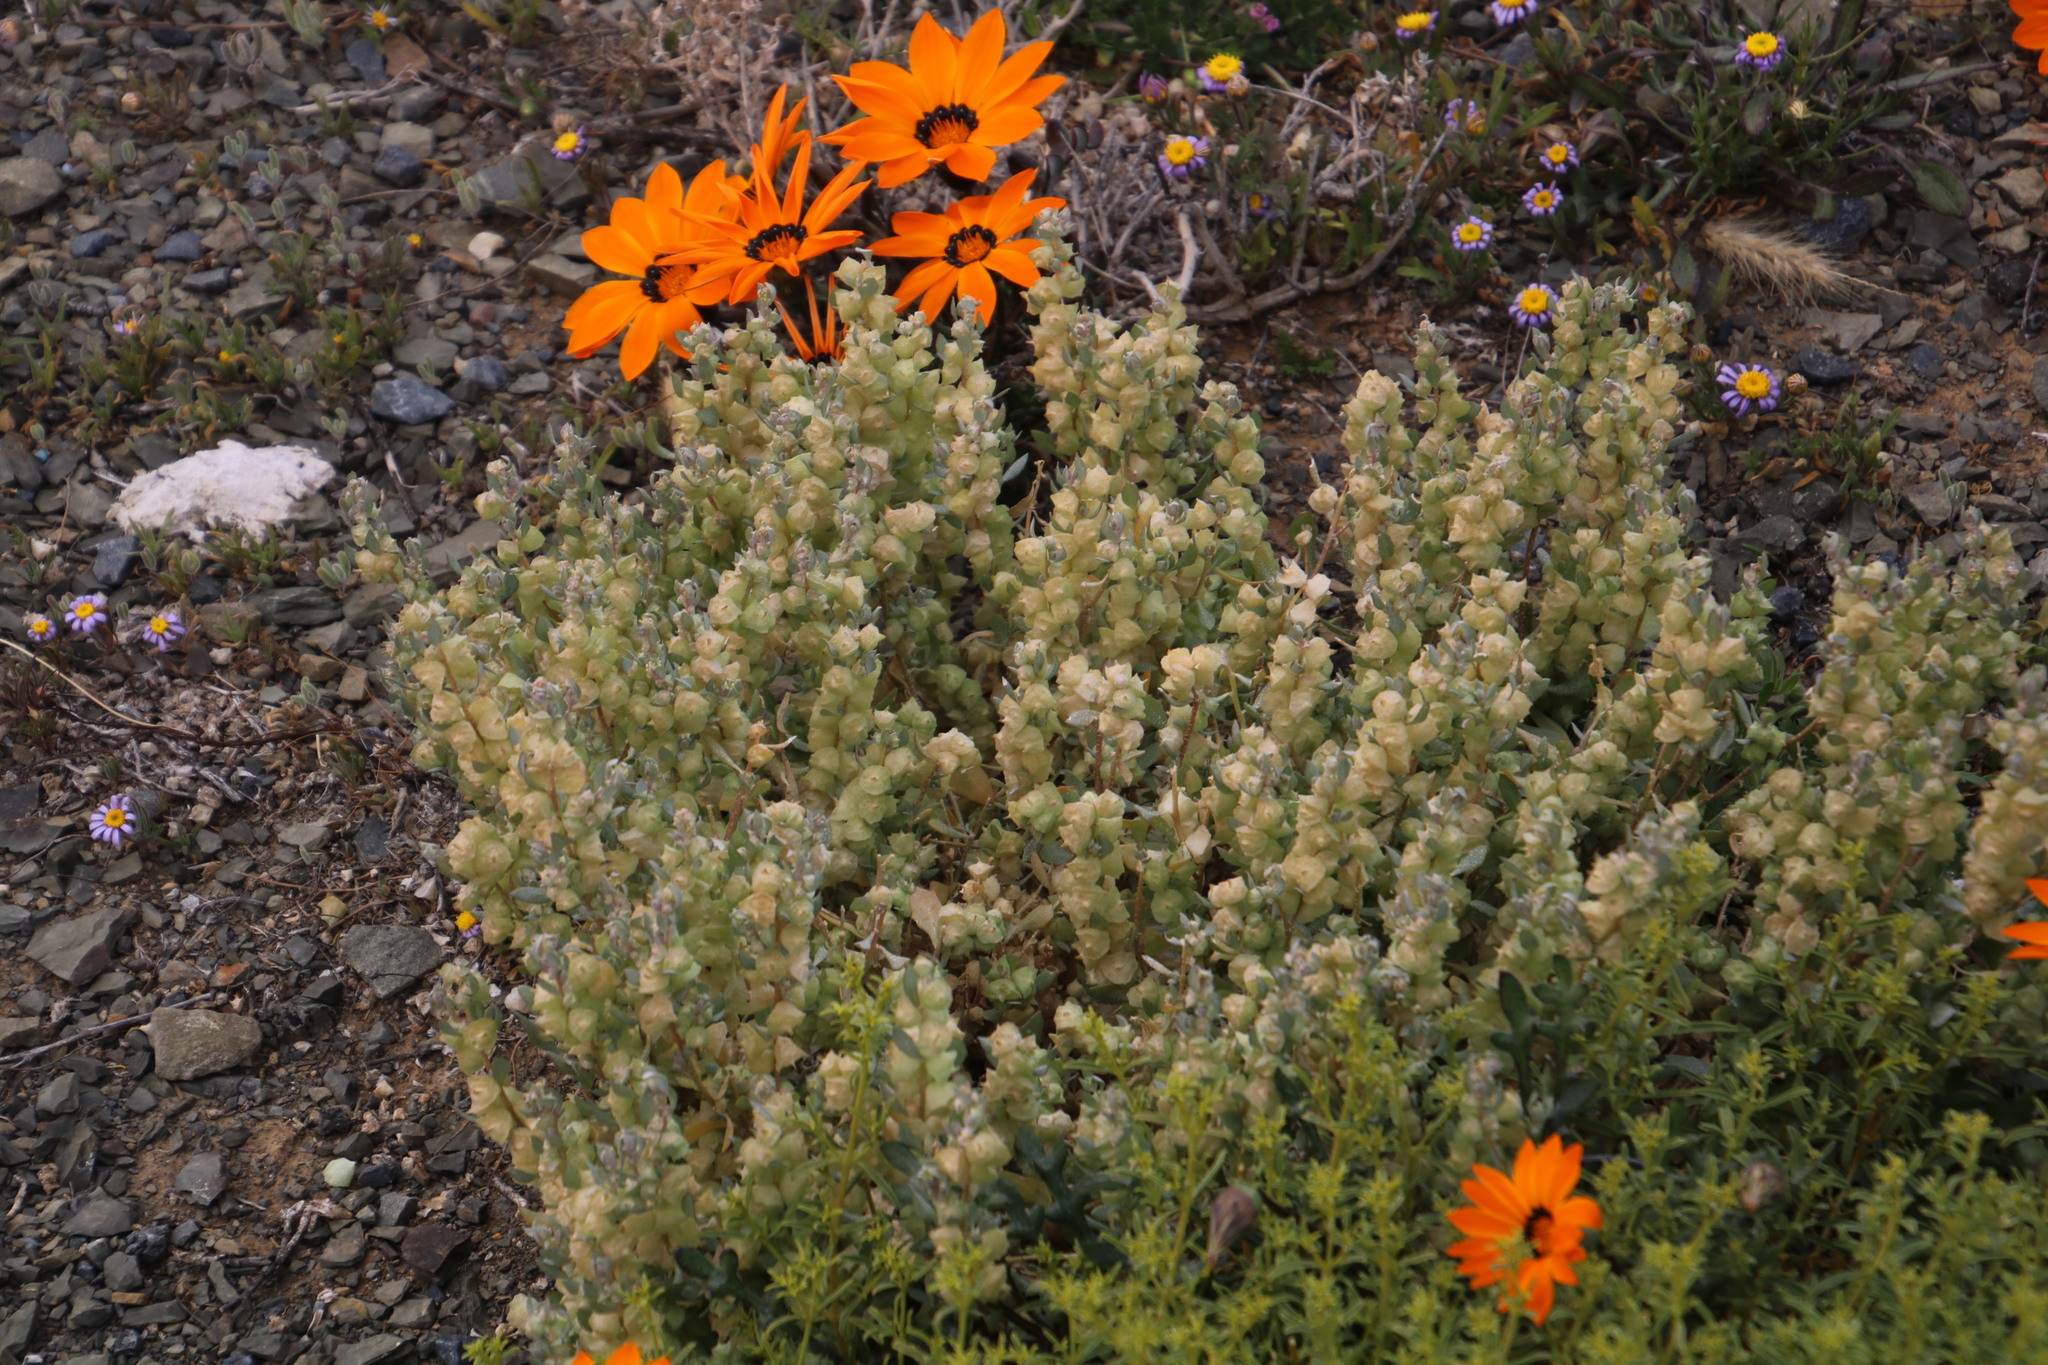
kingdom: Plantae
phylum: Tracheophyta
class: Magnoliopsida
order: Caryophyllales
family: Amaranthaceae
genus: Atriplex
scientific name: Atriplex lindleyi
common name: Lindley's saltbush
